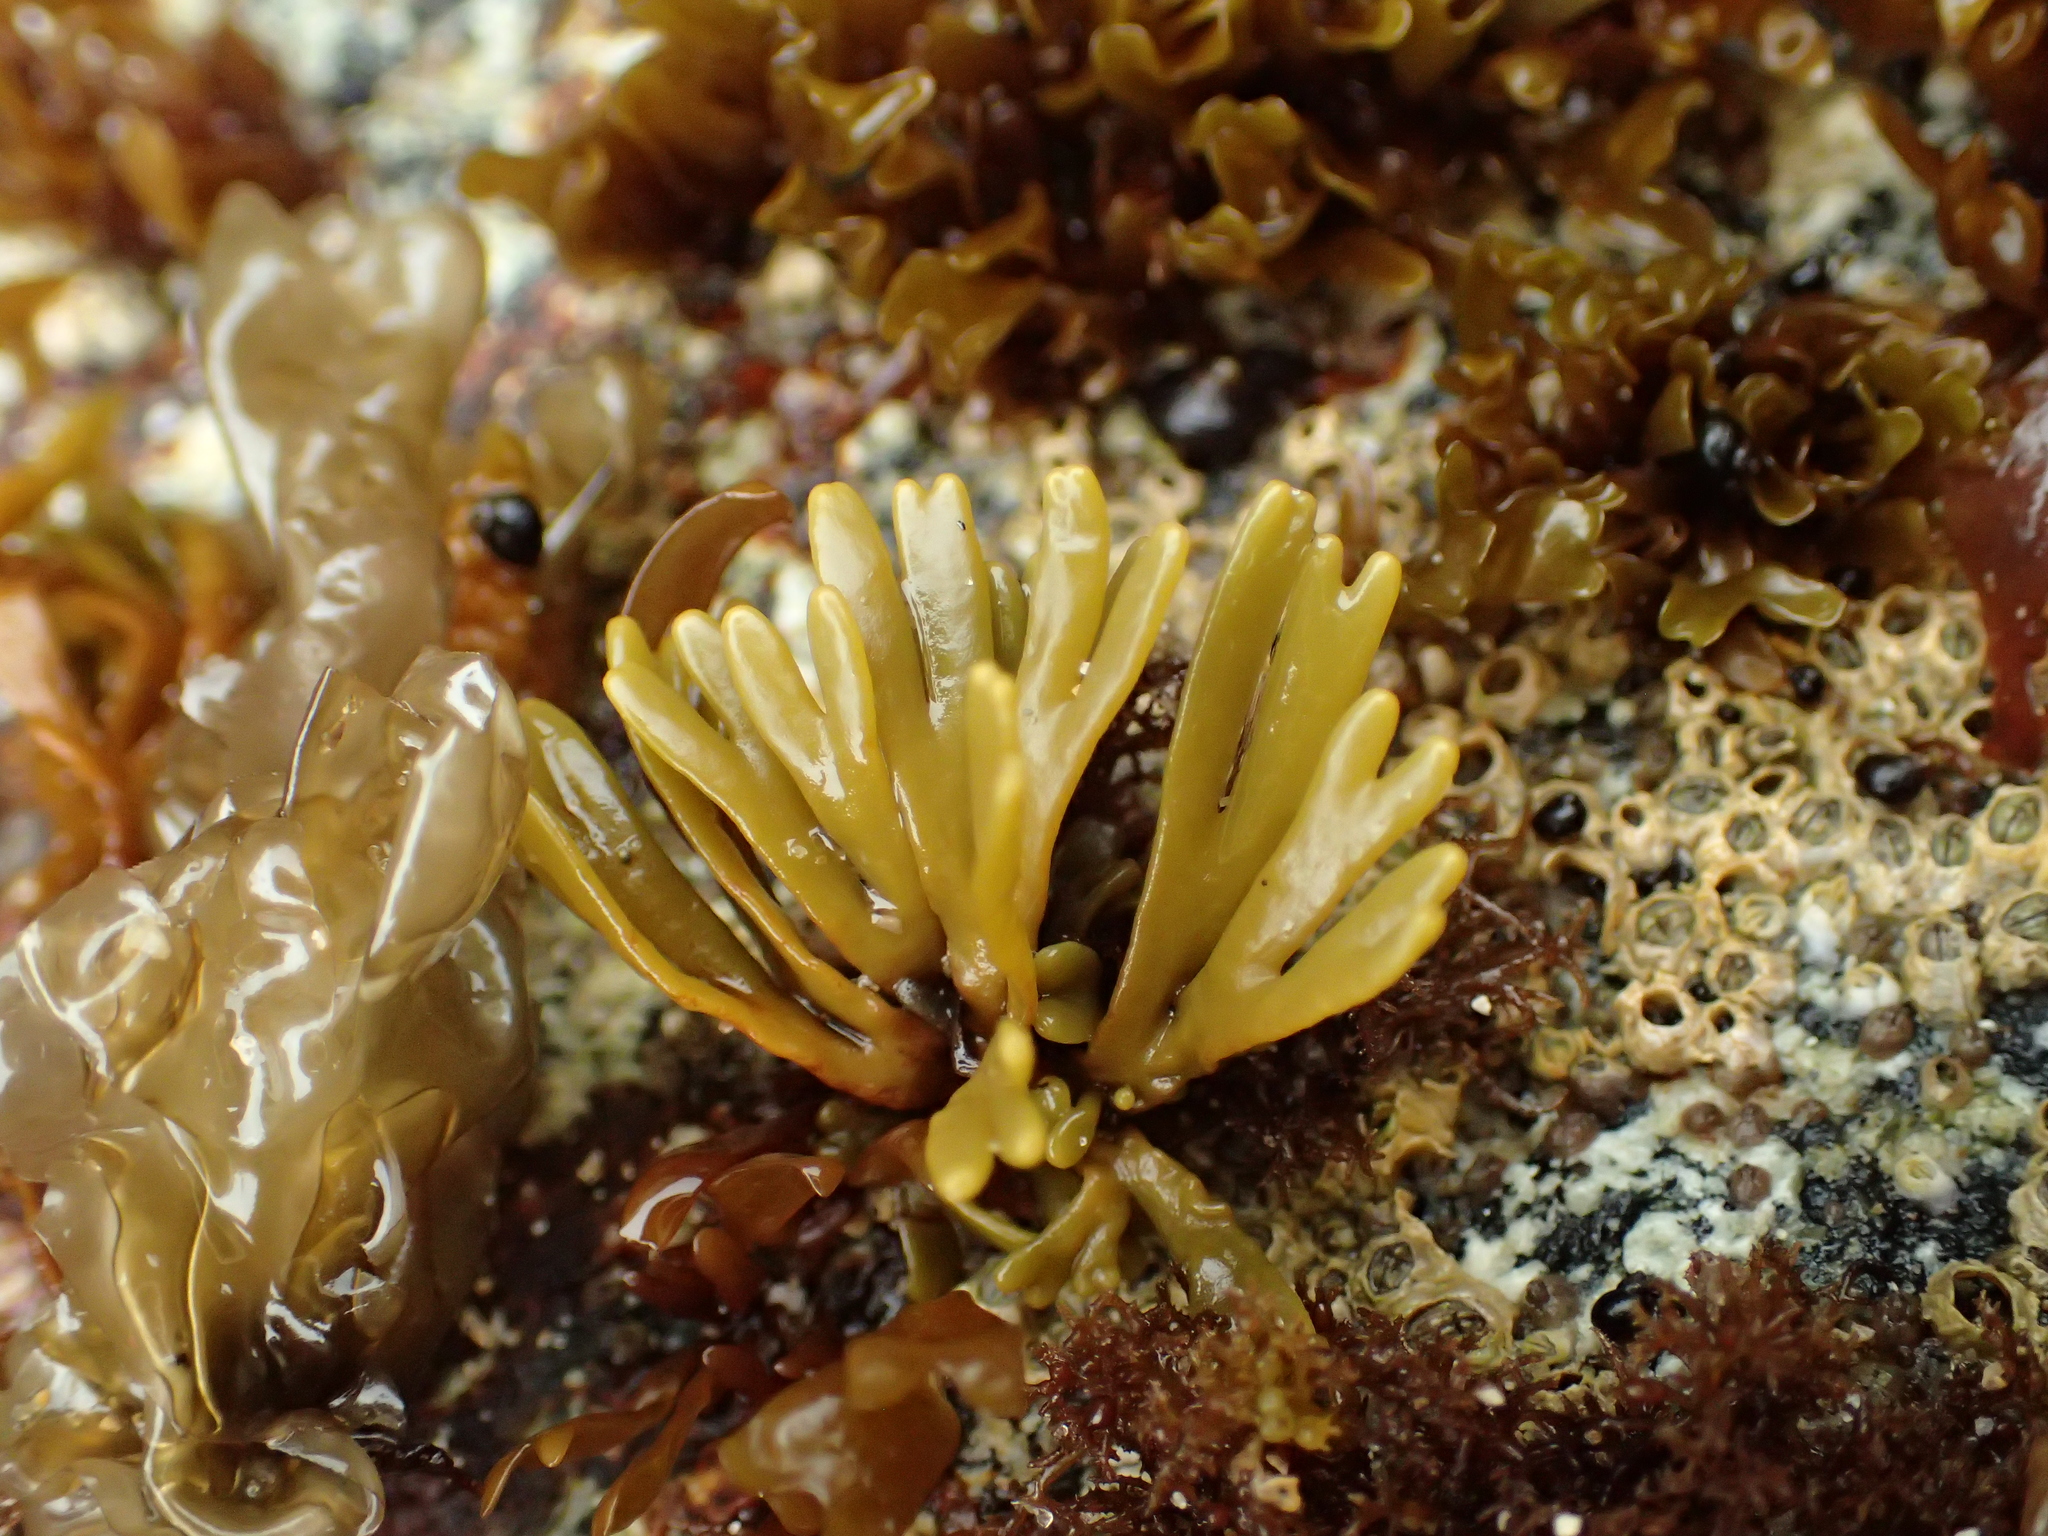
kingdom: Chromista
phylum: Ochrophyta
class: Phaeophyceae
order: Fucales
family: Fucaceae
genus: Pelvetiopsis
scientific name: Pelvetiopsis limitata
